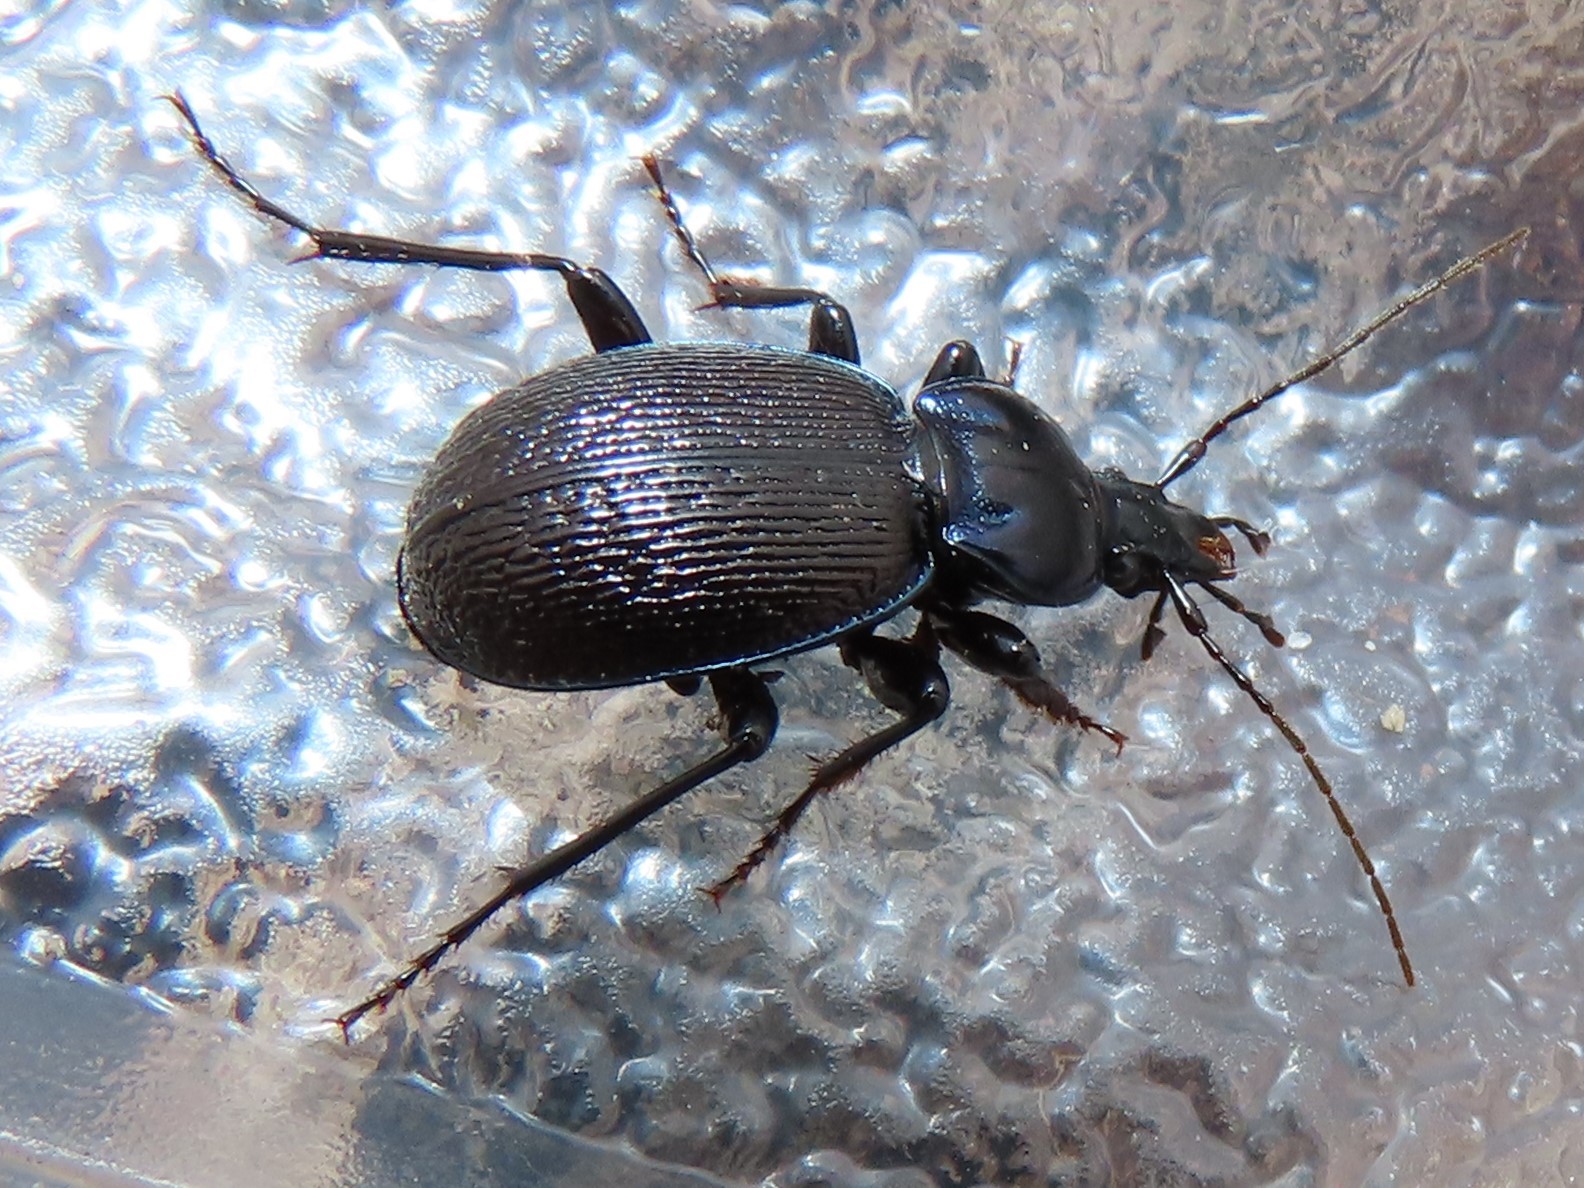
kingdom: Animalia
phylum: Arthropoda
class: Insecta
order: Coleoptera
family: Carabidae
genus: Sphaeroderus
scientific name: Sphaeroderus stenostomus
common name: Small snail-eating ground beetle
